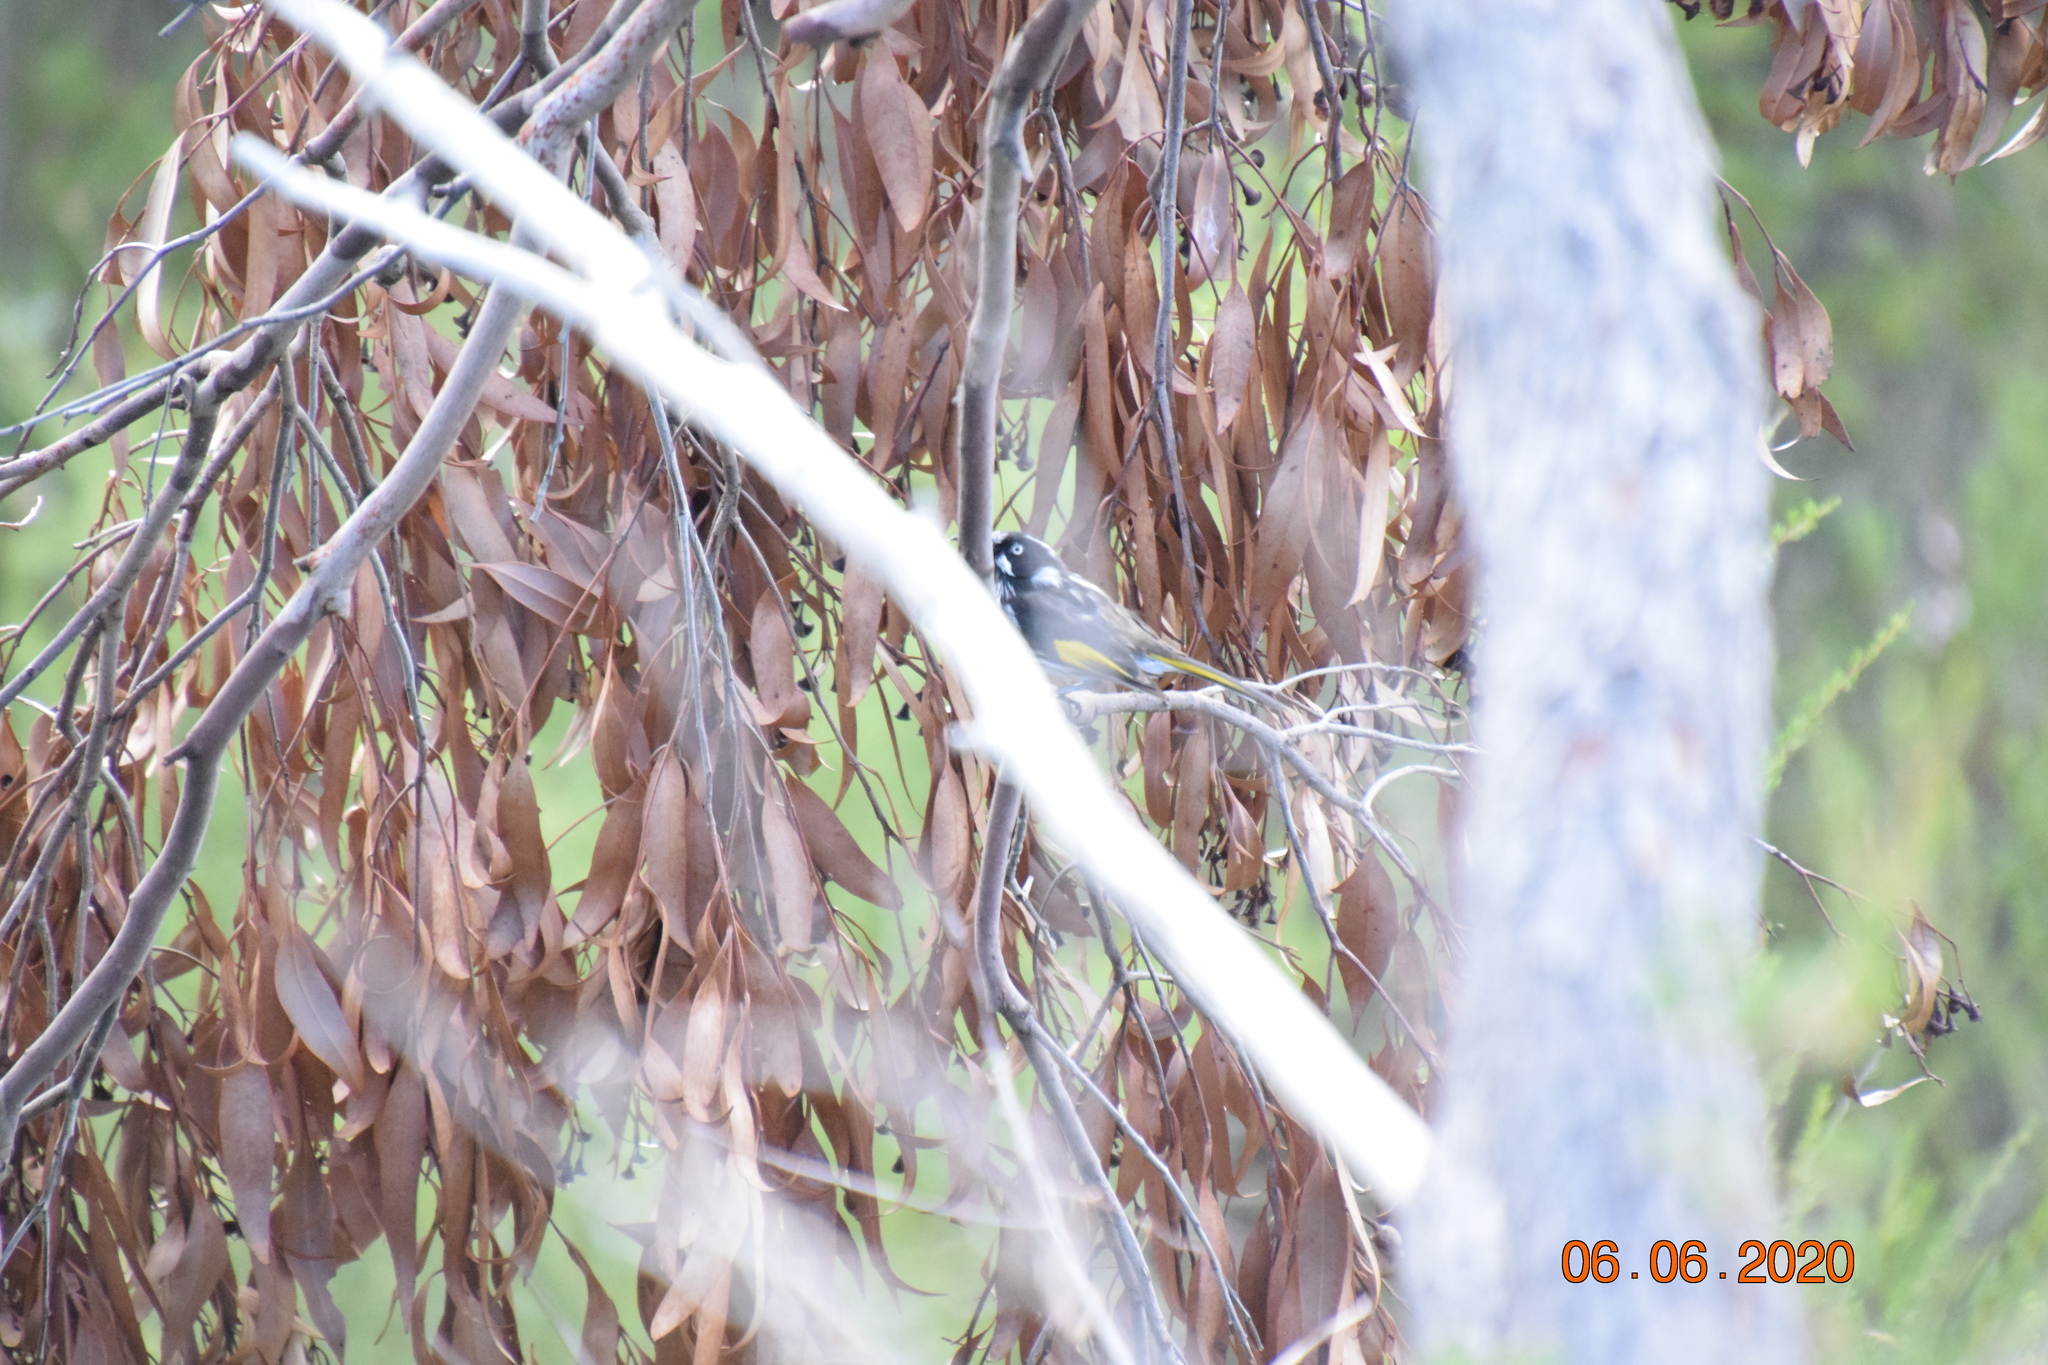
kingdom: Animalia
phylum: Chordata
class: Aves
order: Passeriformes
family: Meliphagidae
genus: Phylidonyris
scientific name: Phylidonyris novaehollandiae
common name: New holland honeyeater
